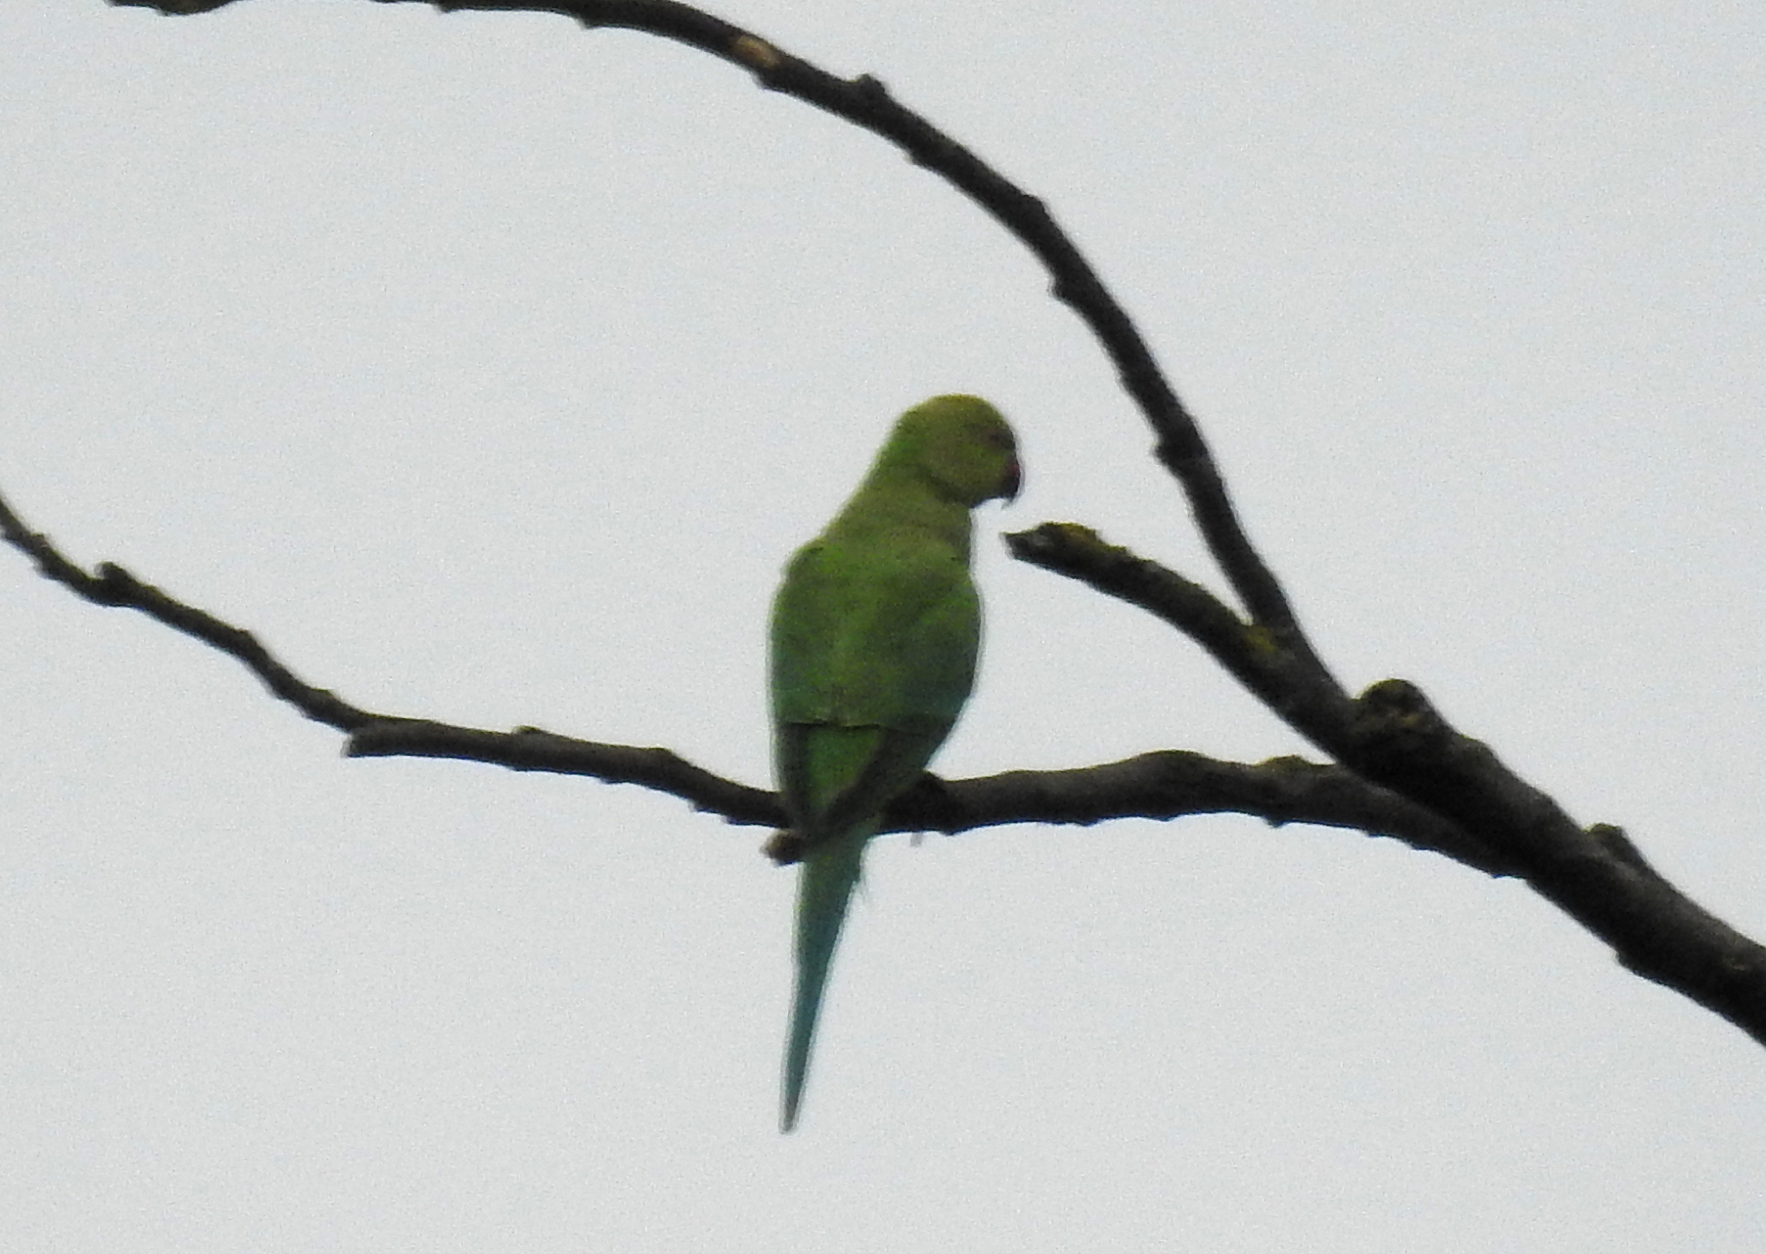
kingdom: Animalia
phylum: Chordata
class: Aves
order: Psittaciformes
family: Psittacidae
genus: Psittacula
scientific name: Psittacula krameri
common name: Rose-ringed parakeet
